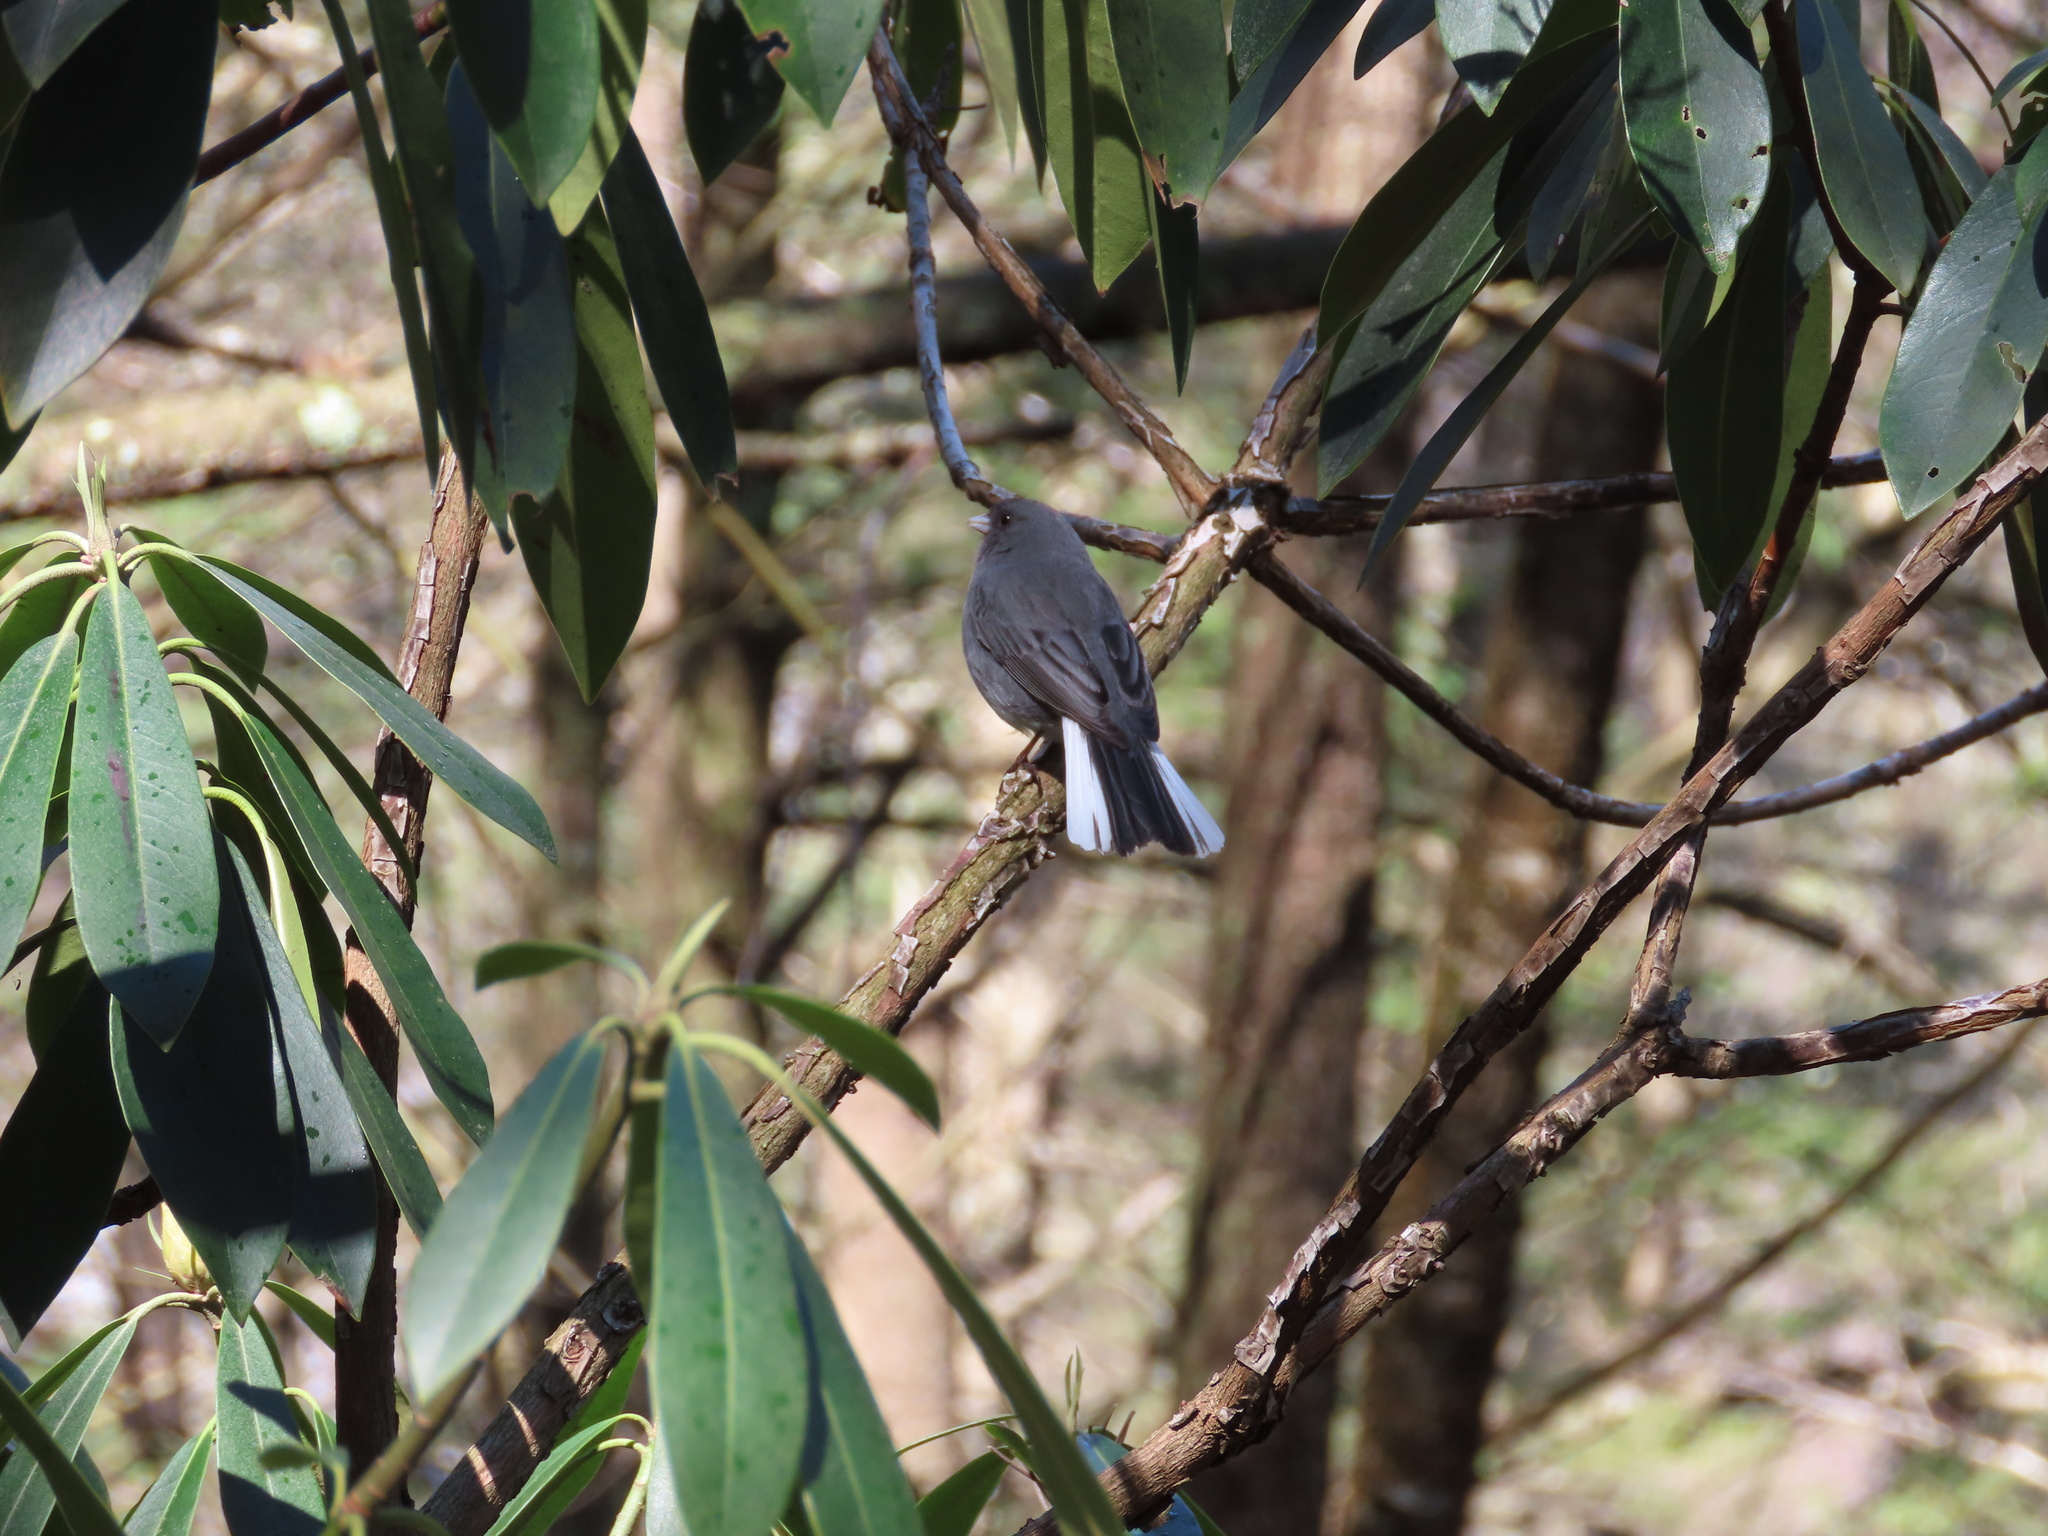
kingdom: Animalia
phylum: Chordata
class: Aves
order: Passeriformes
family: Passerellidae
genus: Junco
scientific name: Junco hyemalis
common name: Dark-eyed junco
